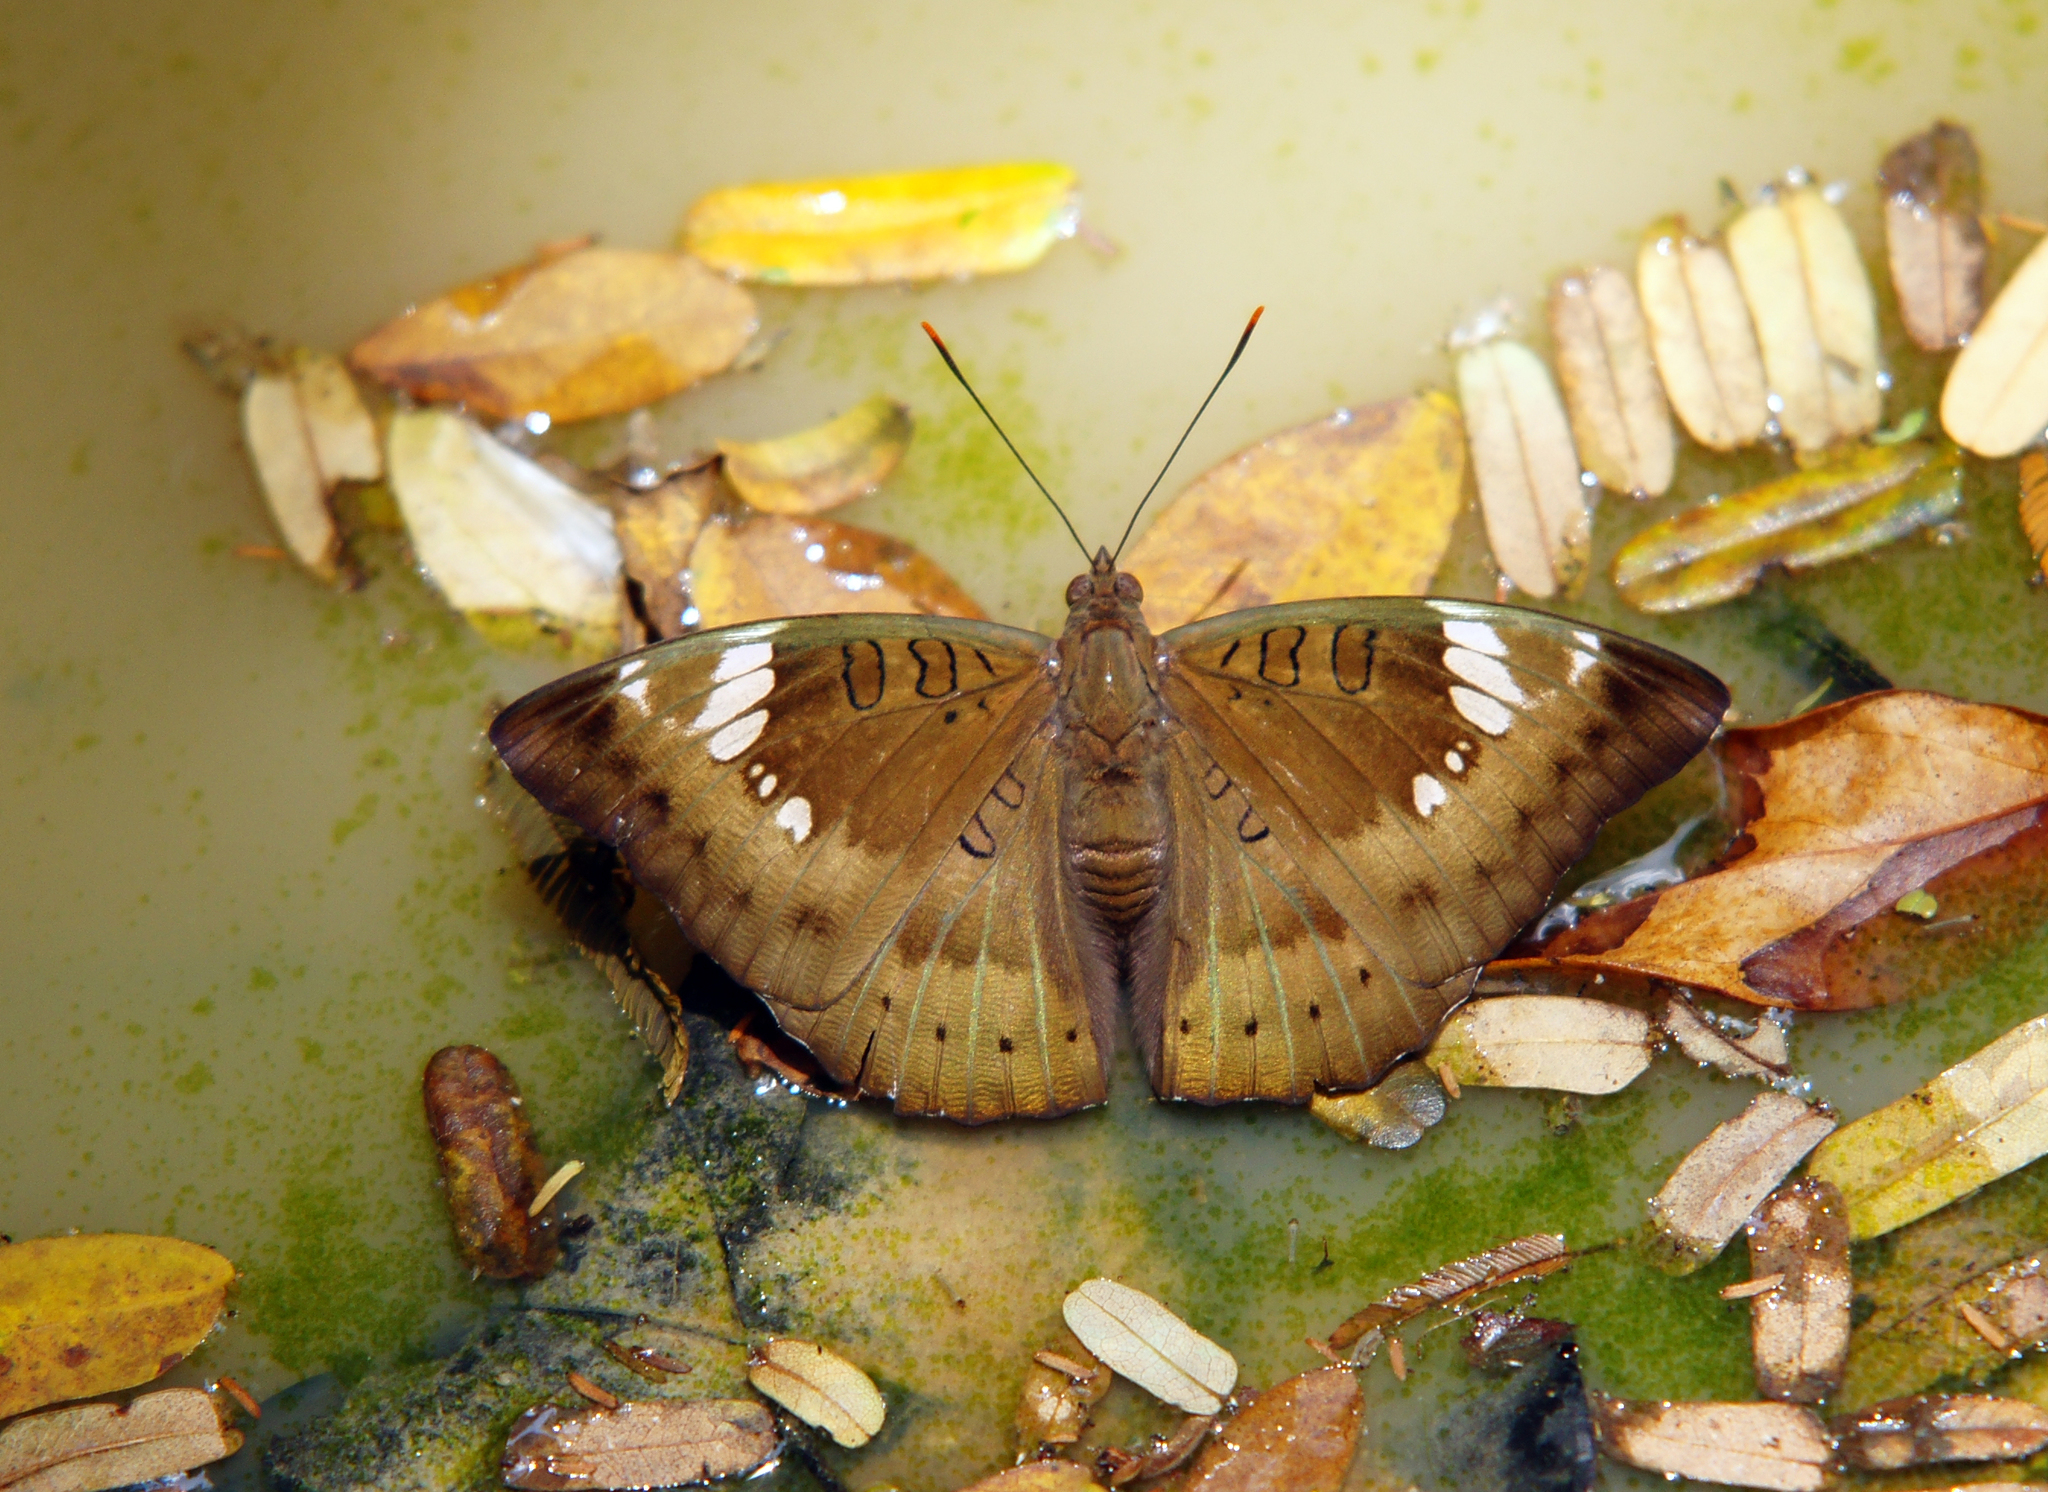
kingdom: Animalia
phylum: Arthropoda
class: Insecta
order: Lepidoptera
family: Nymphalidae
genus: Euthalia
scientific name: Euthalia aconthea
